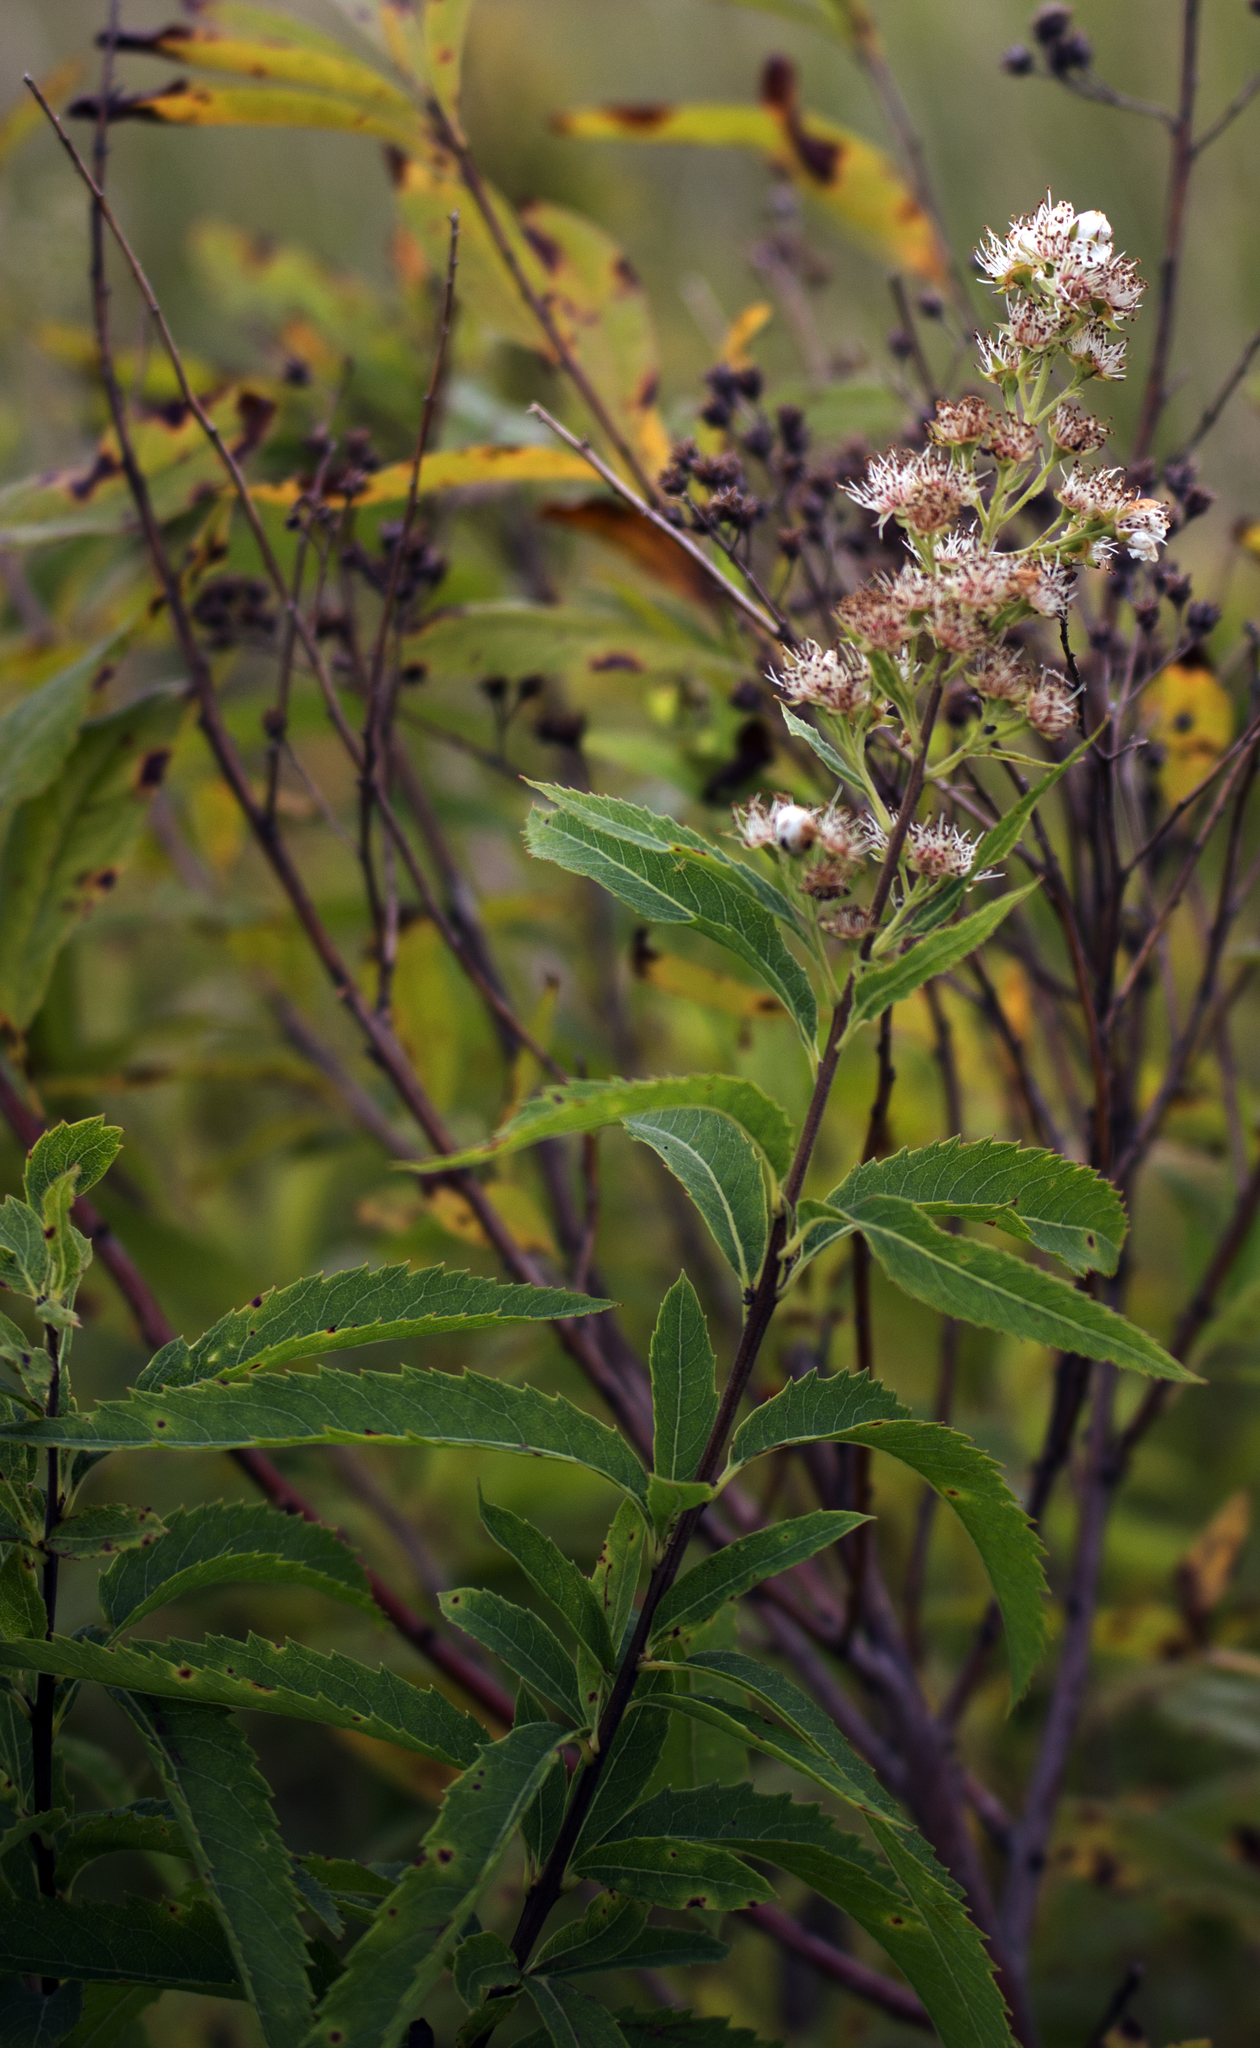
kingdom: Plantae
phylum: Tracheophyta
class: Magnoliopsida
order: Rosales
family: Rosaceae
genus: Spiraea
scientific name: Spiraea alba
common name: Pale bridewort
